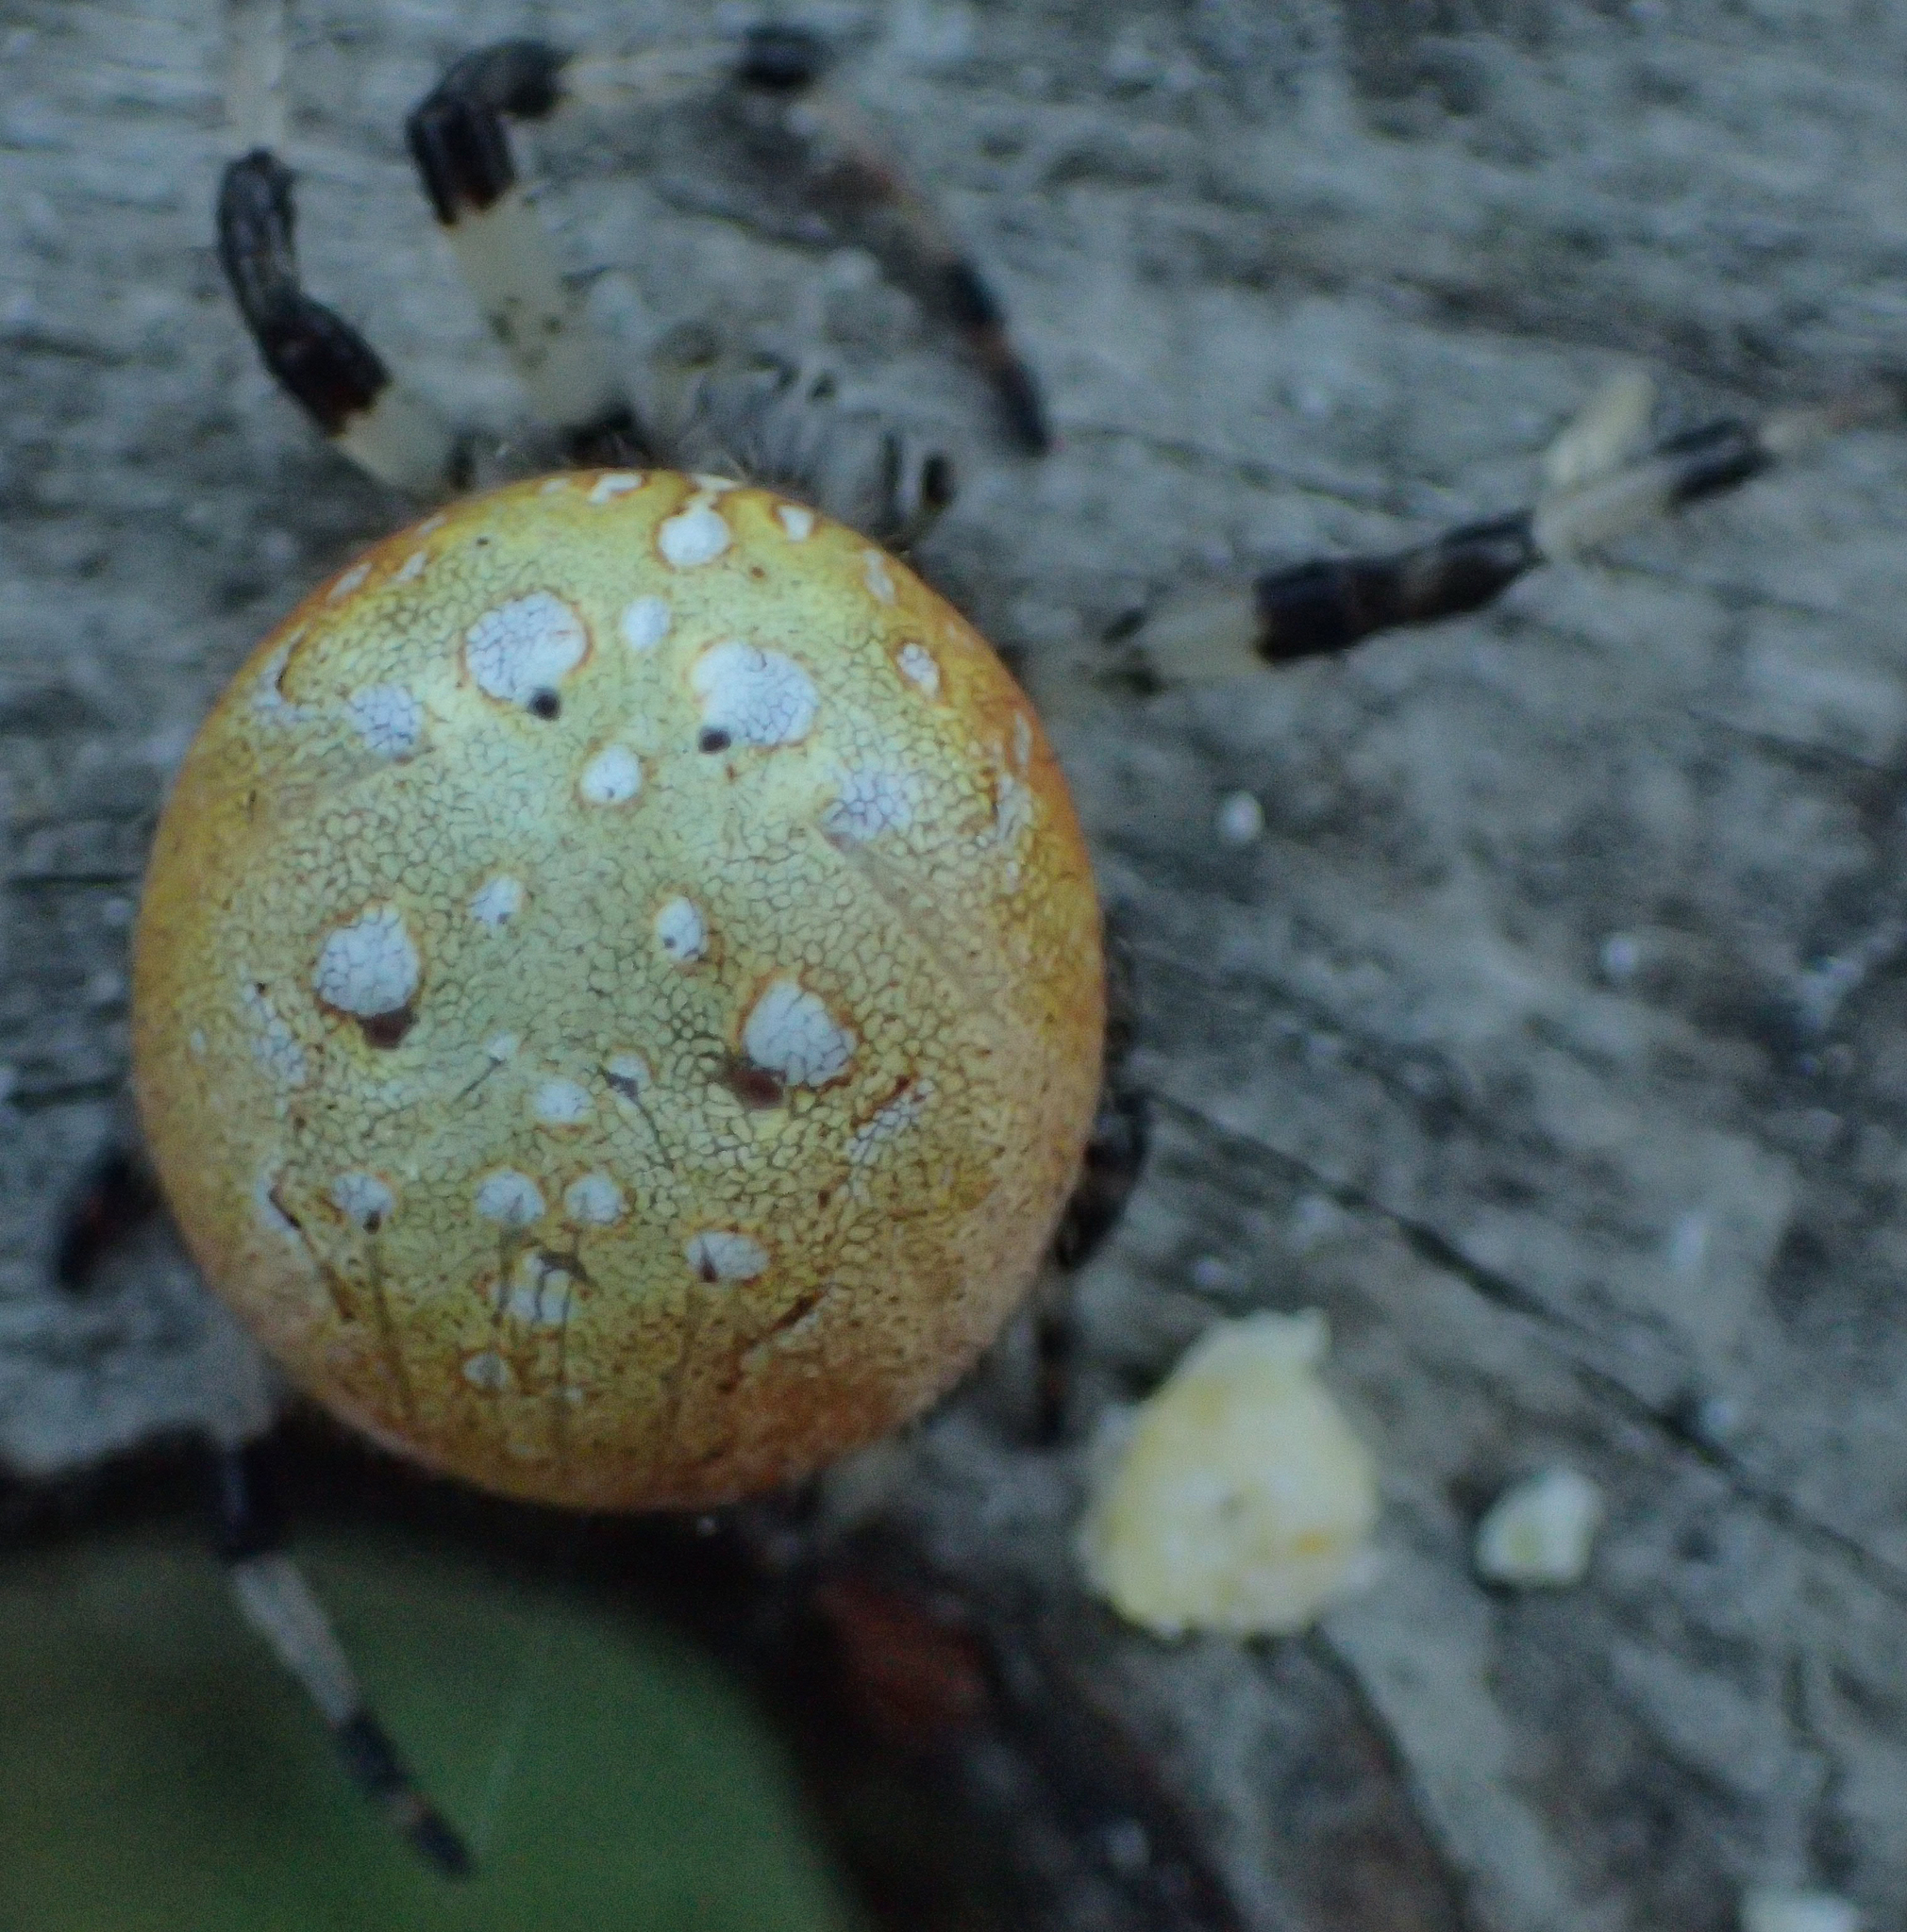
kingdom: Animalia
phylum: Arthropoda
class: Arachnida
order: Araneae
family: Araneidae
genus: Araneus
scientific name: Araneus trifolium
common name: Shamrock orbweaver
